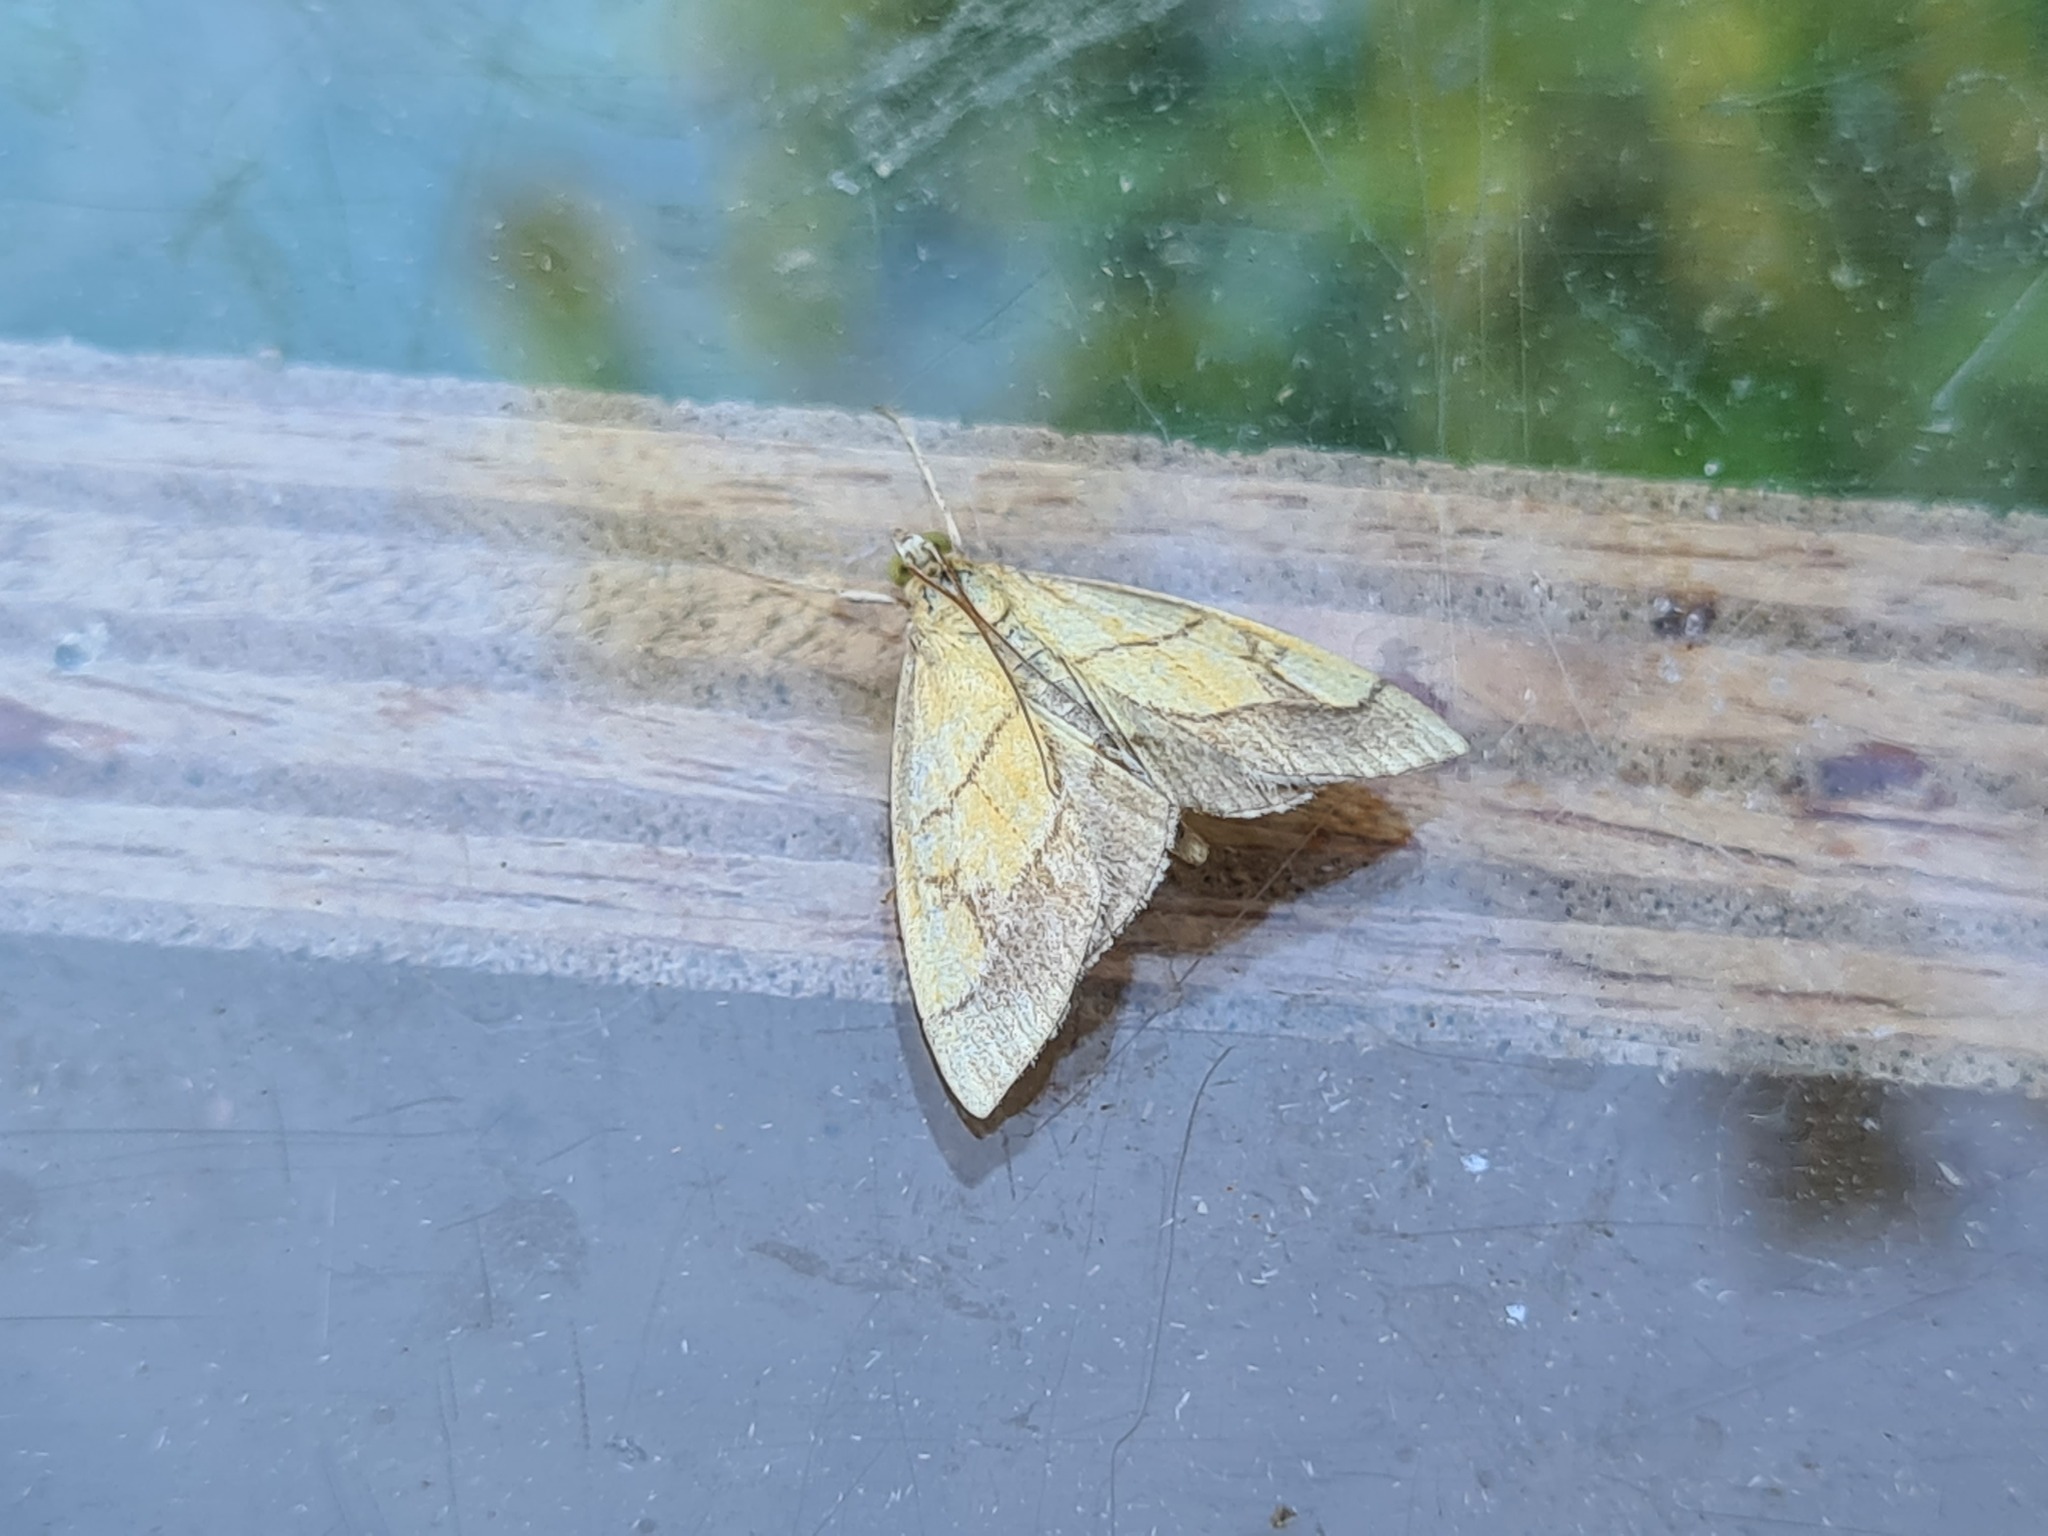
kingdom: Animalia
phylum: Arthropoda
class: Insecta
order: Lepidoptera
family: Crambidae
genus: Evergestis
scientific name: Evergestis limbata
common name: Dark bordered pearl
